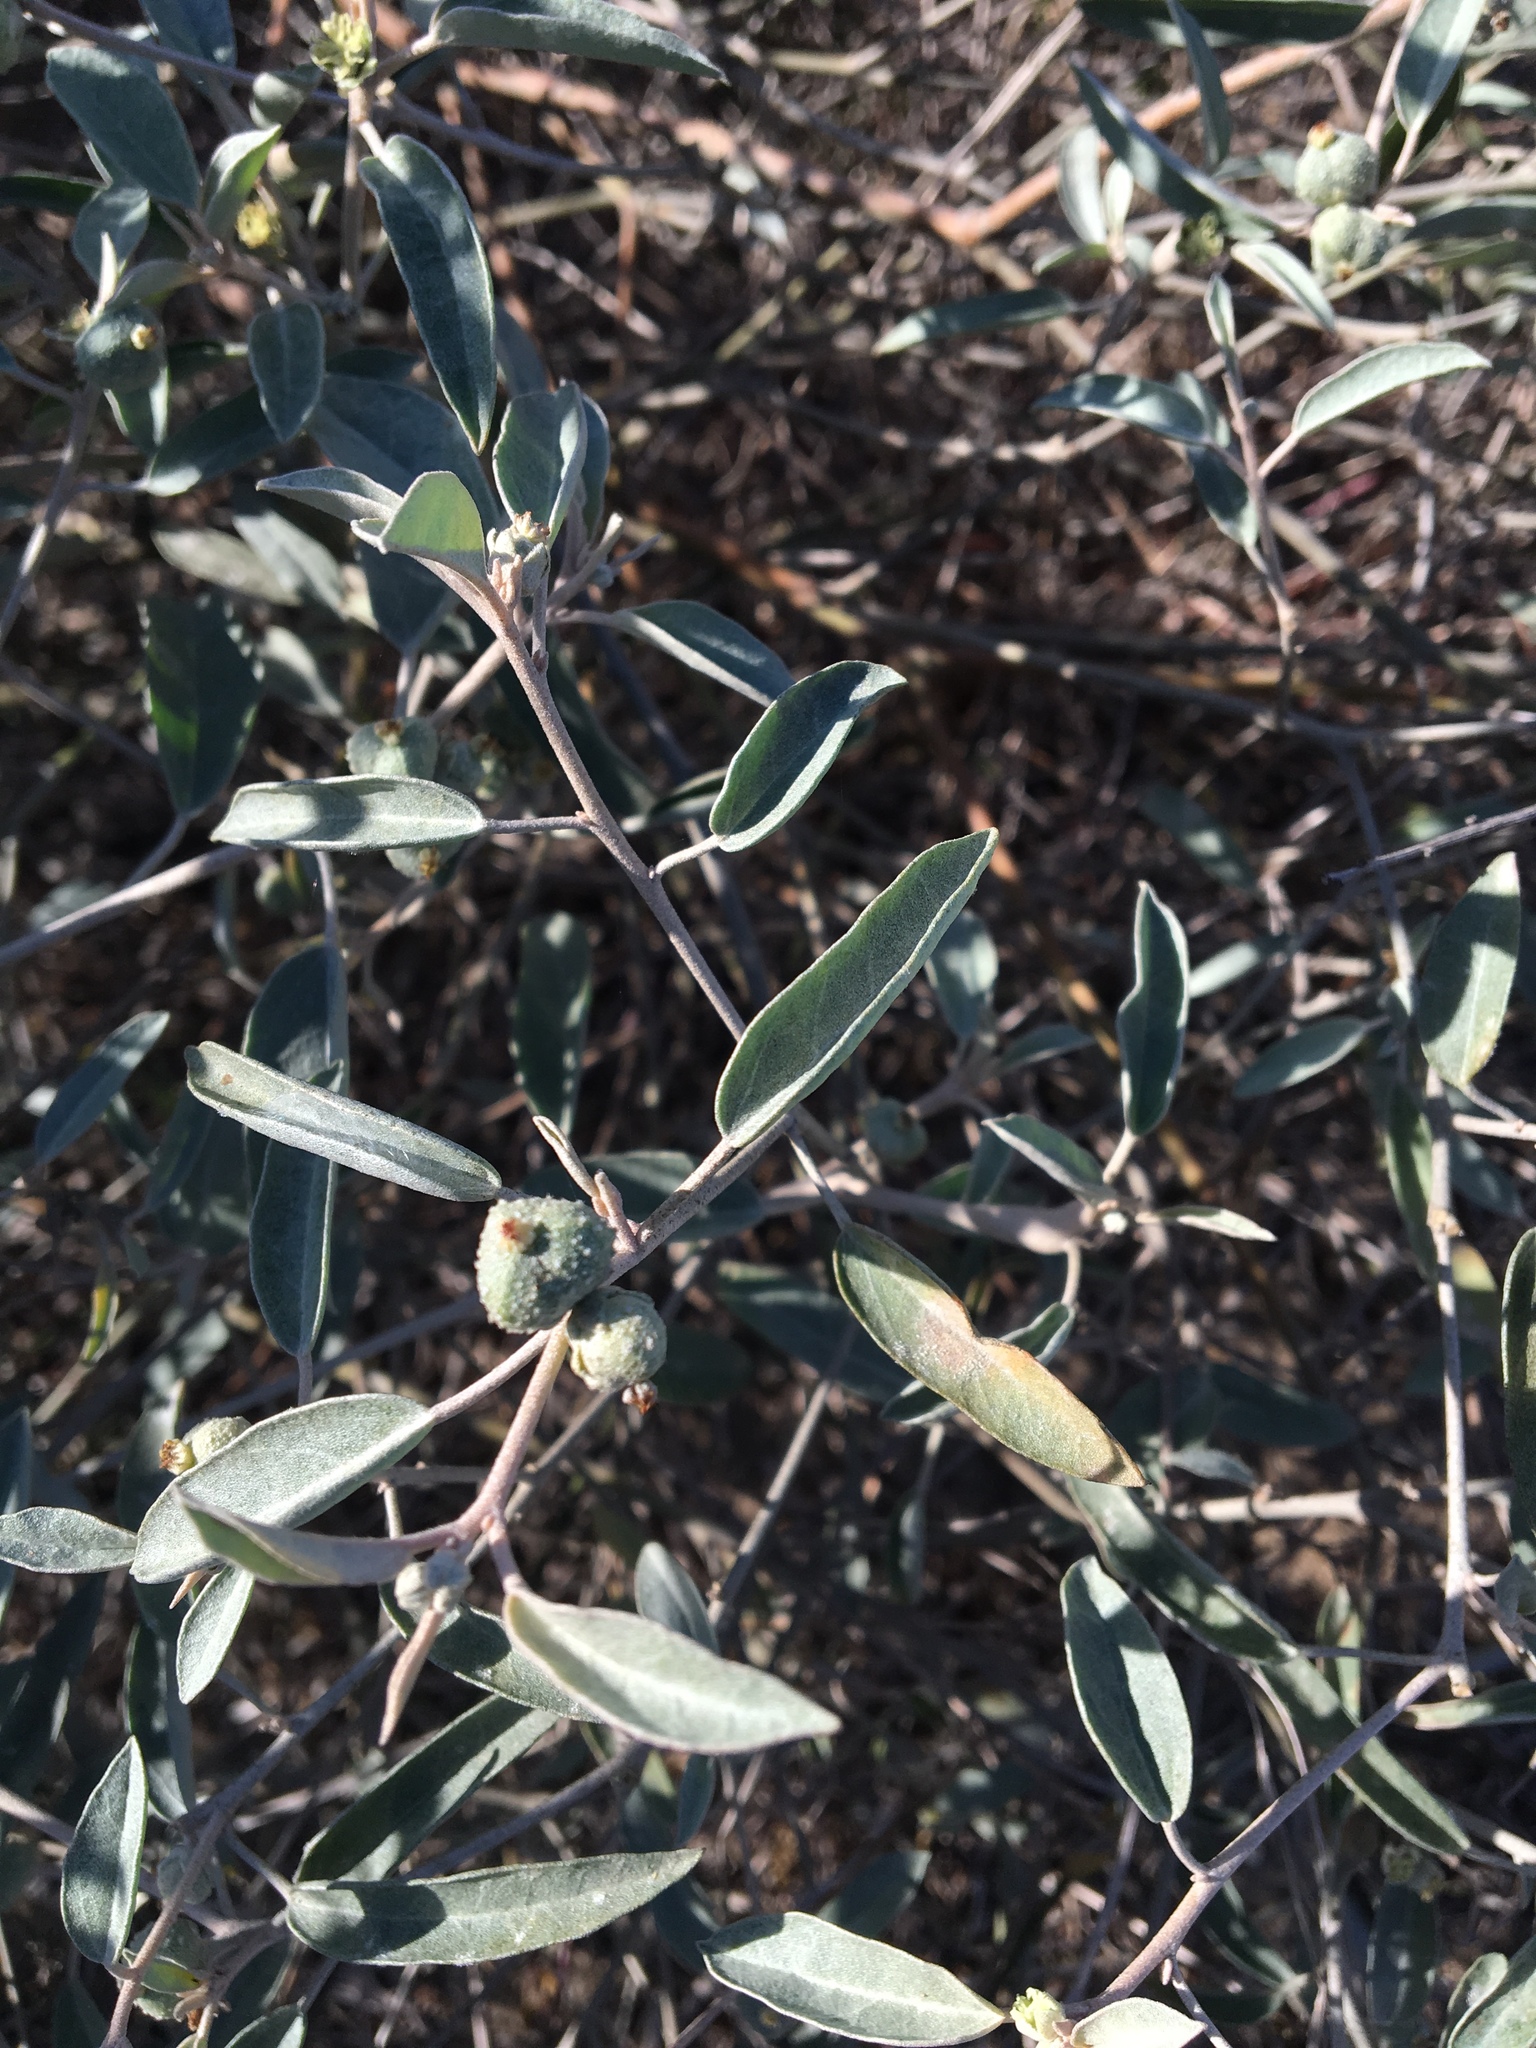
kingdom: Plantae
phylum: Tracheophyta
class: Magnoliopsida
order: Malpighiales
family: Euphorbiaceae
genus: Croton
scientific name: Croton californicus
